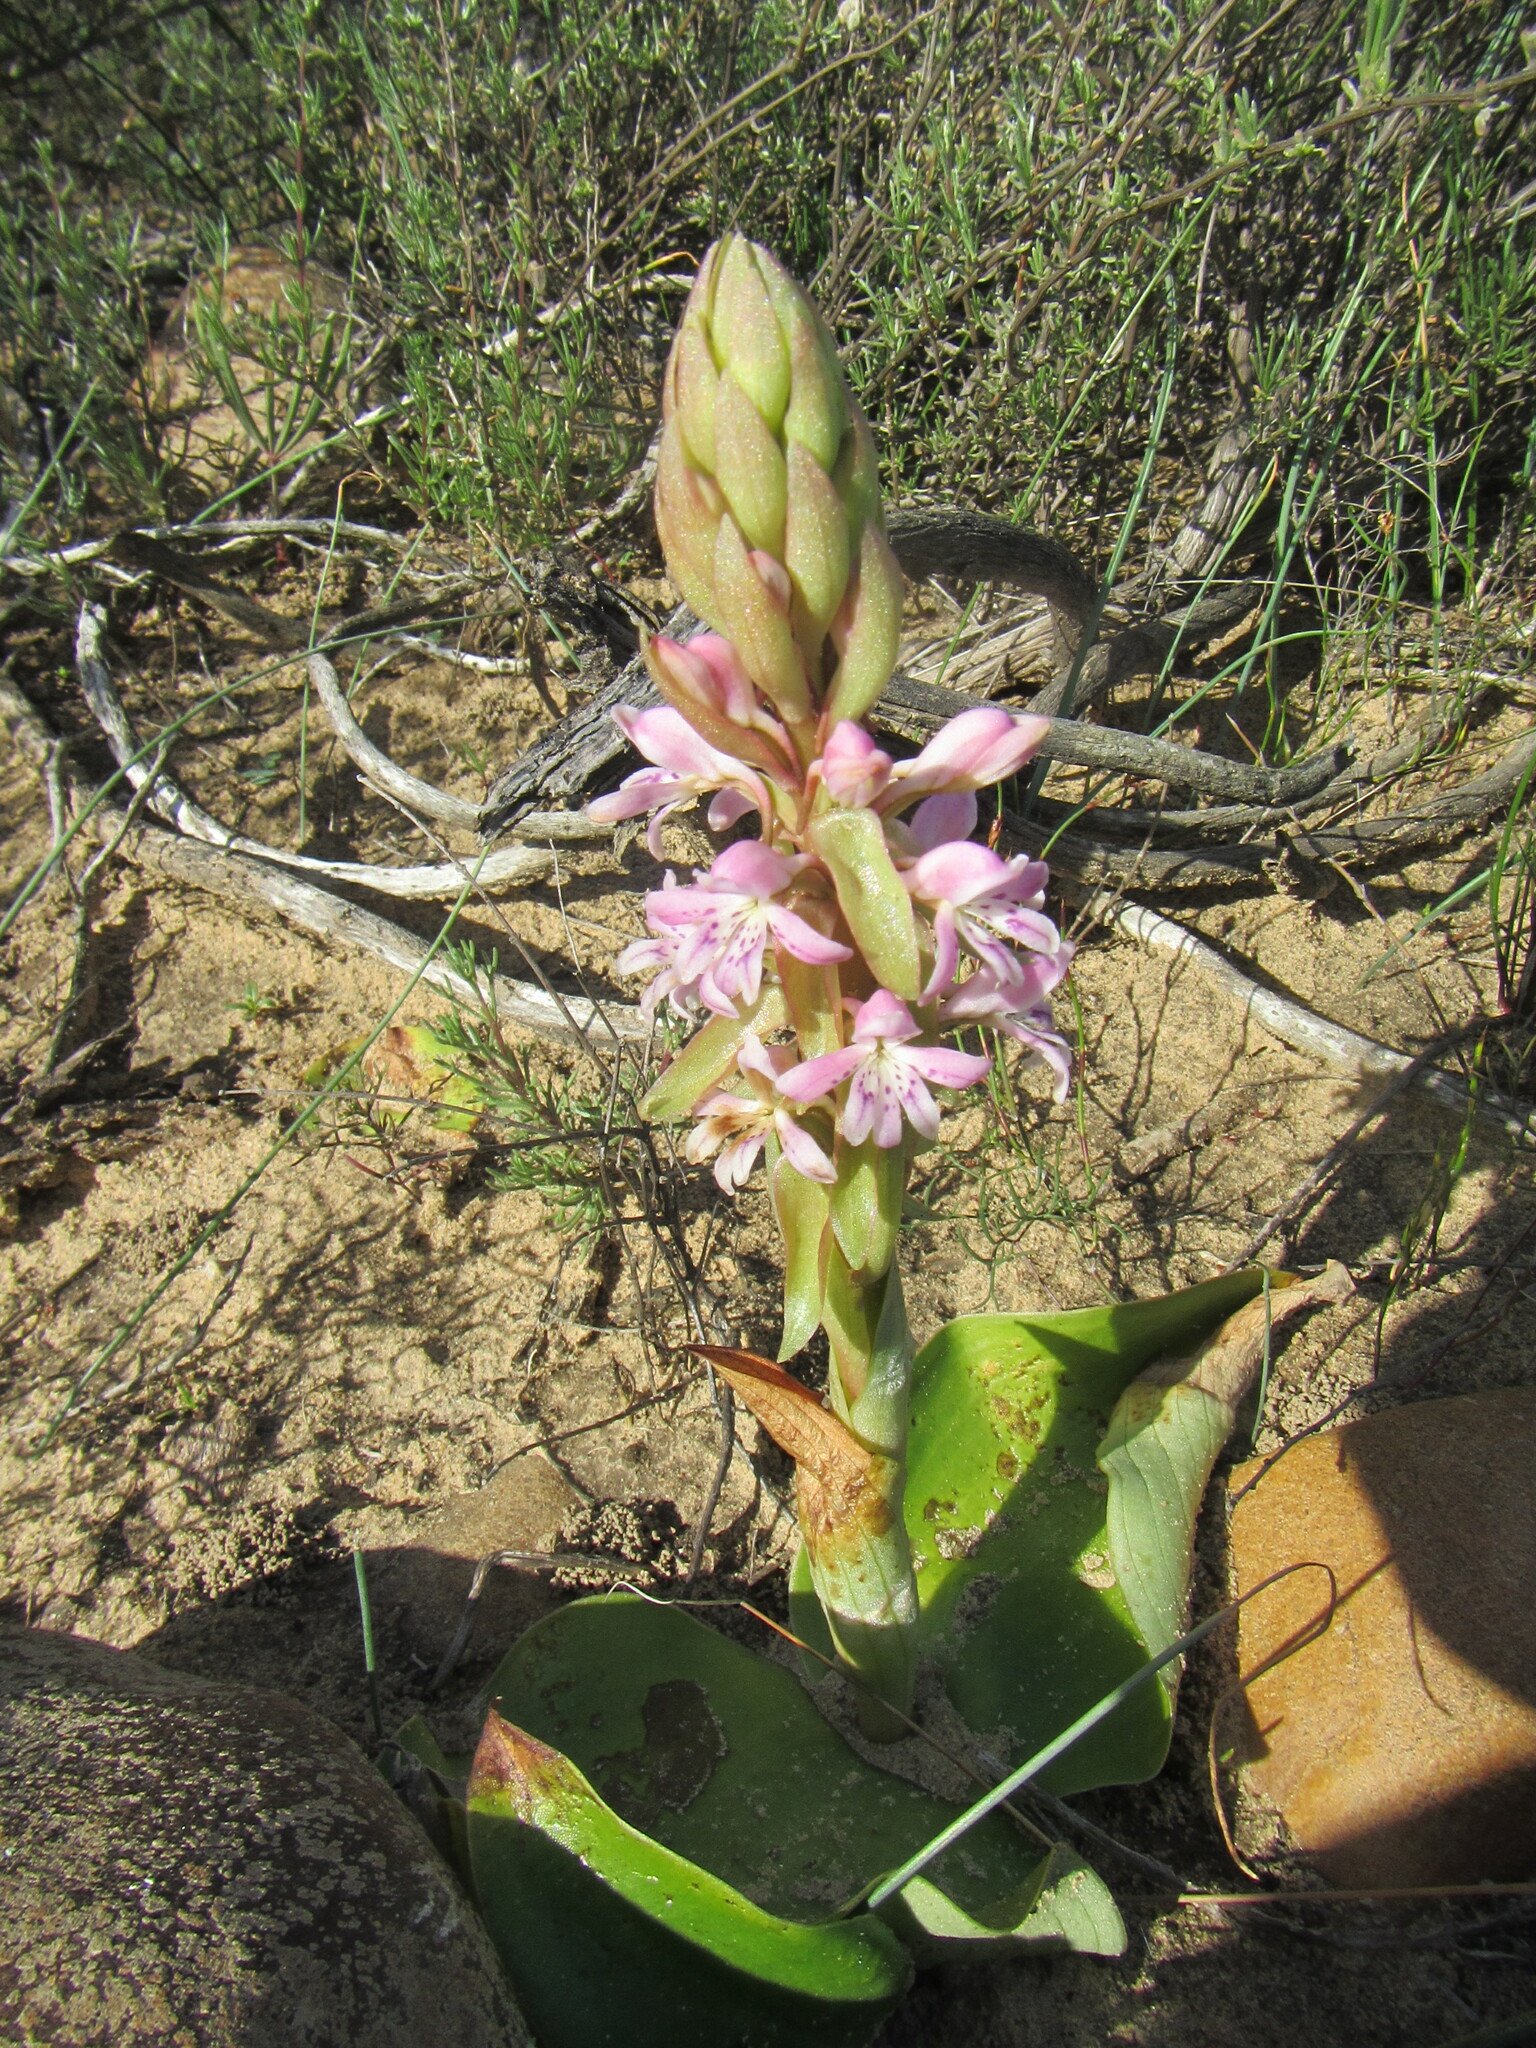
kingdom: Plantae
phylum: Tracheophyta
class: Liliopsida
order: Asparagales
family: Orchidaceae
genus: Satyrium
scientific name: Satyrium erectum
